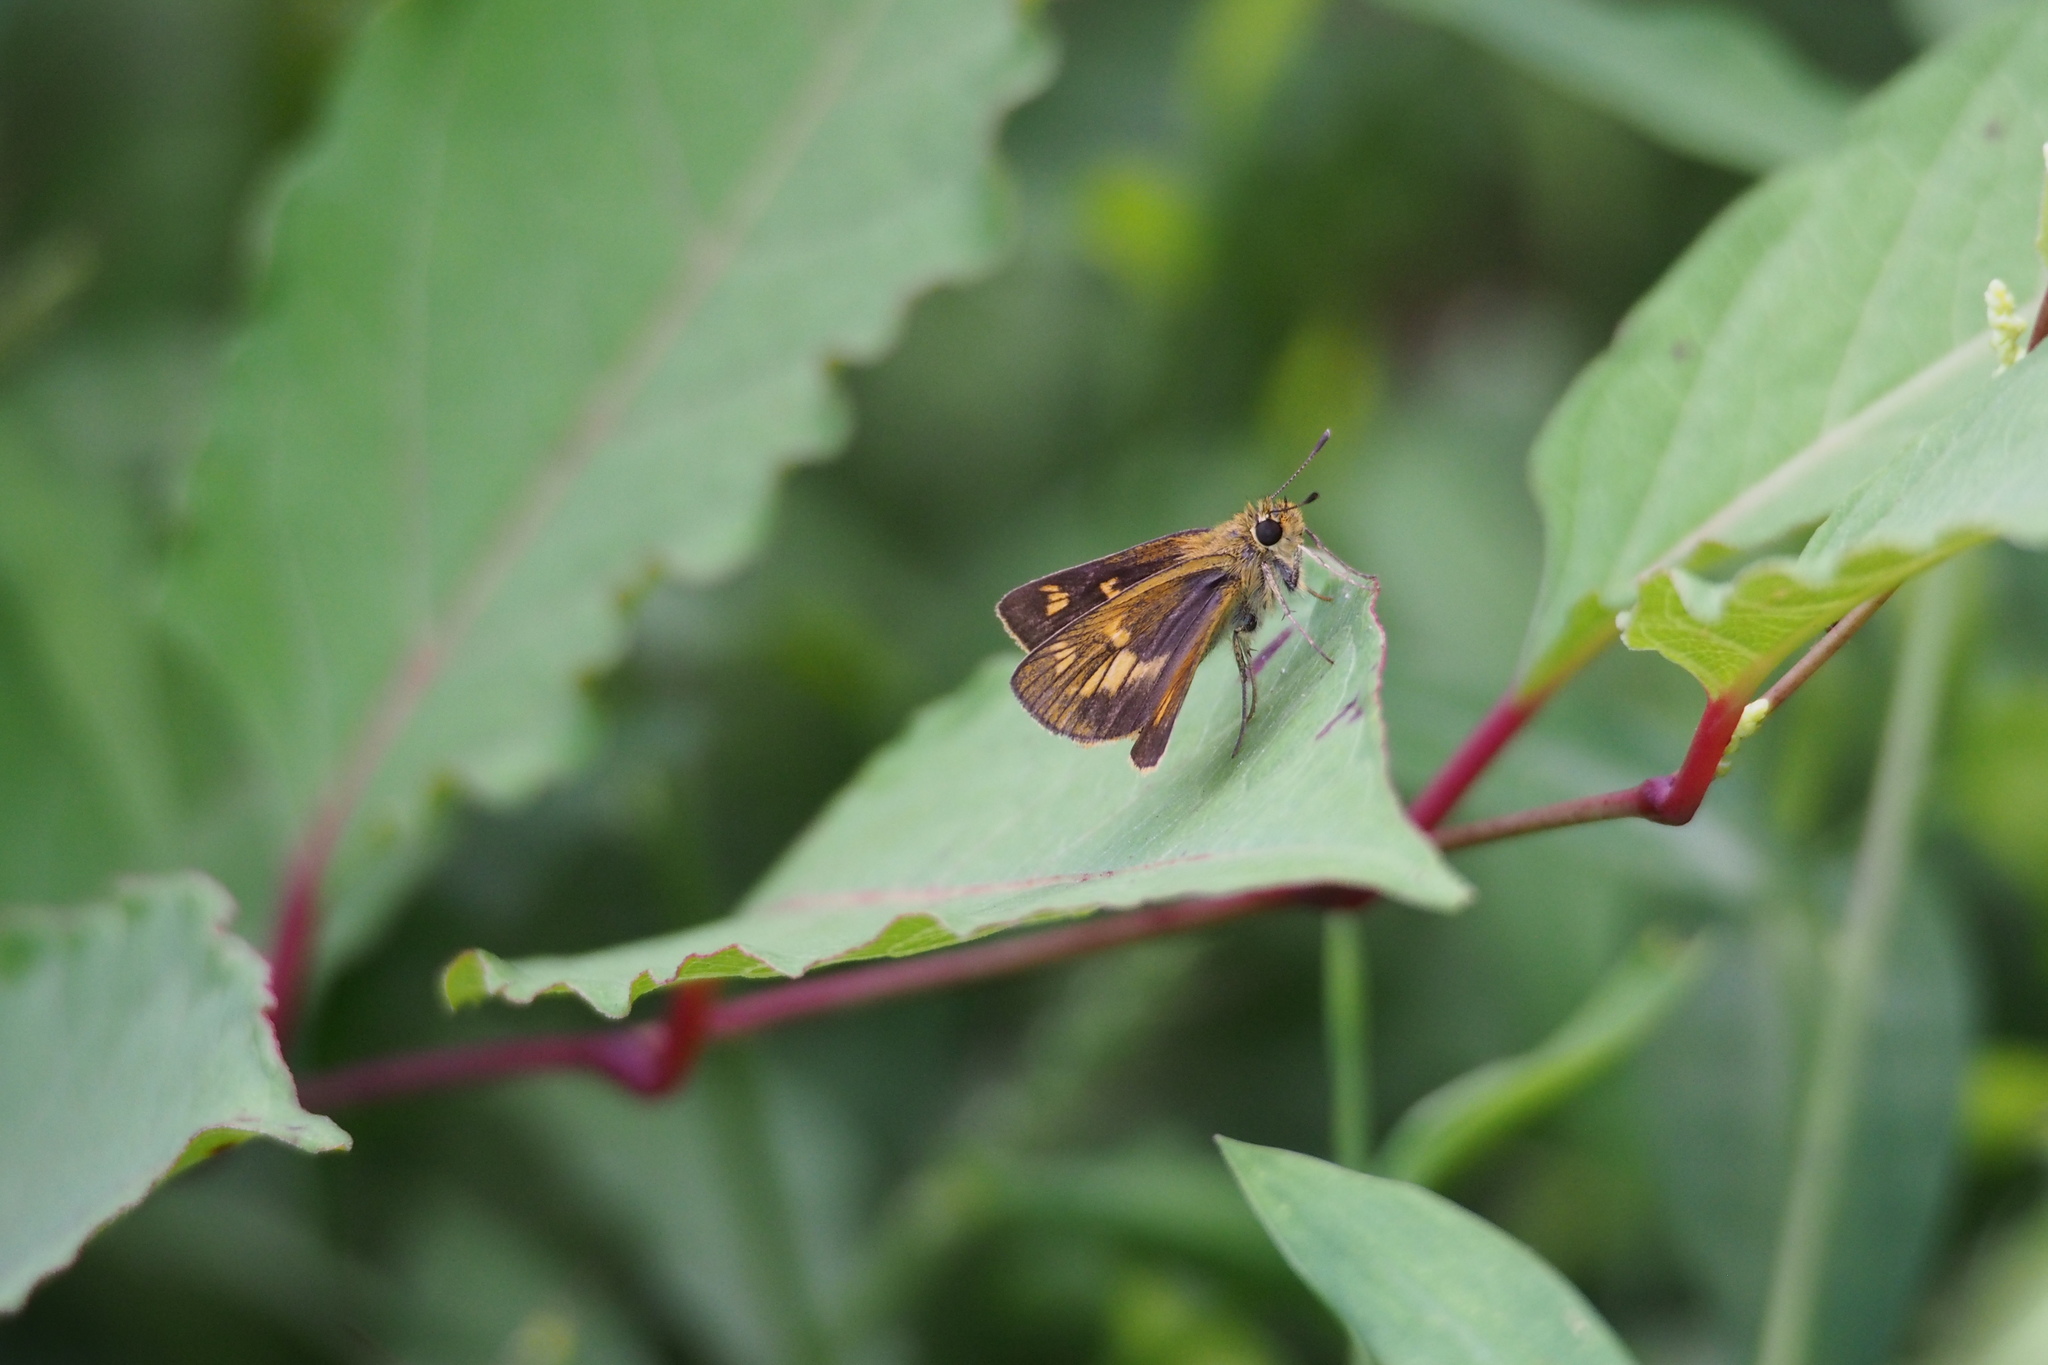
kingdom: Animalia
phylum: Arthropoda
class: Insecta
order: Lepidoptera
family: Hesperiidae
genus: Ochlodes
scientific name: Ochlodes ochracea
